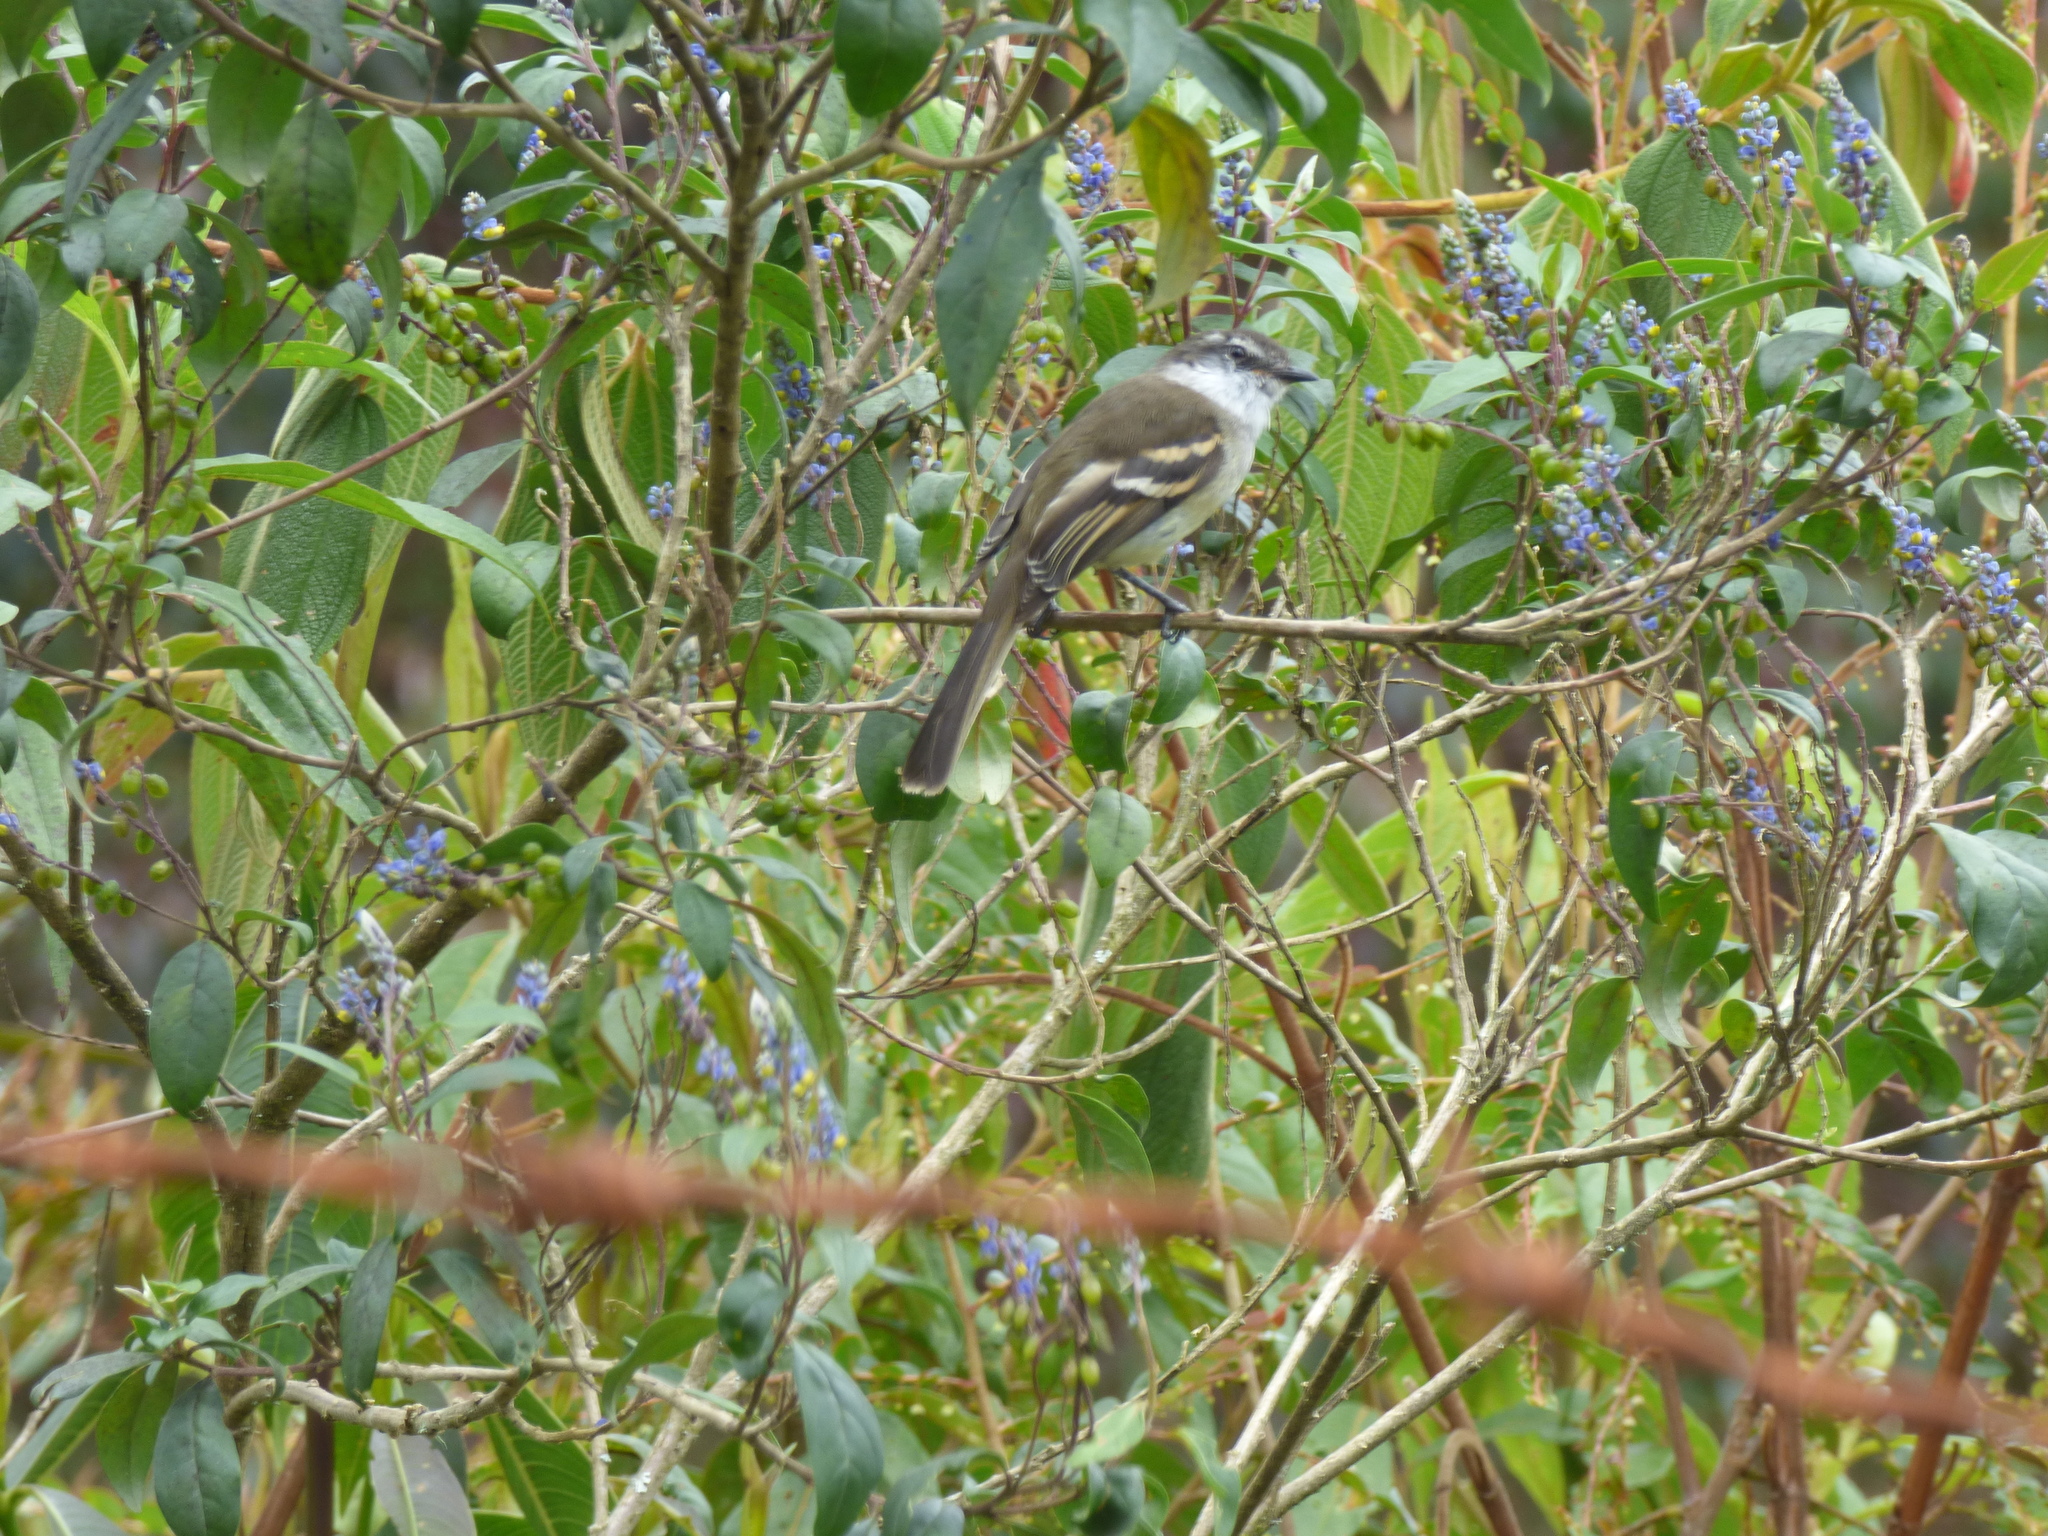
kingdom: Animalia
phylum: Chordata
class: Aves
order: Passeriformes
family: Tyrannidae
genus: Mecocerculus
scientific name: Mecocerculus leucophrys
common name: White-throated tyrannulet
